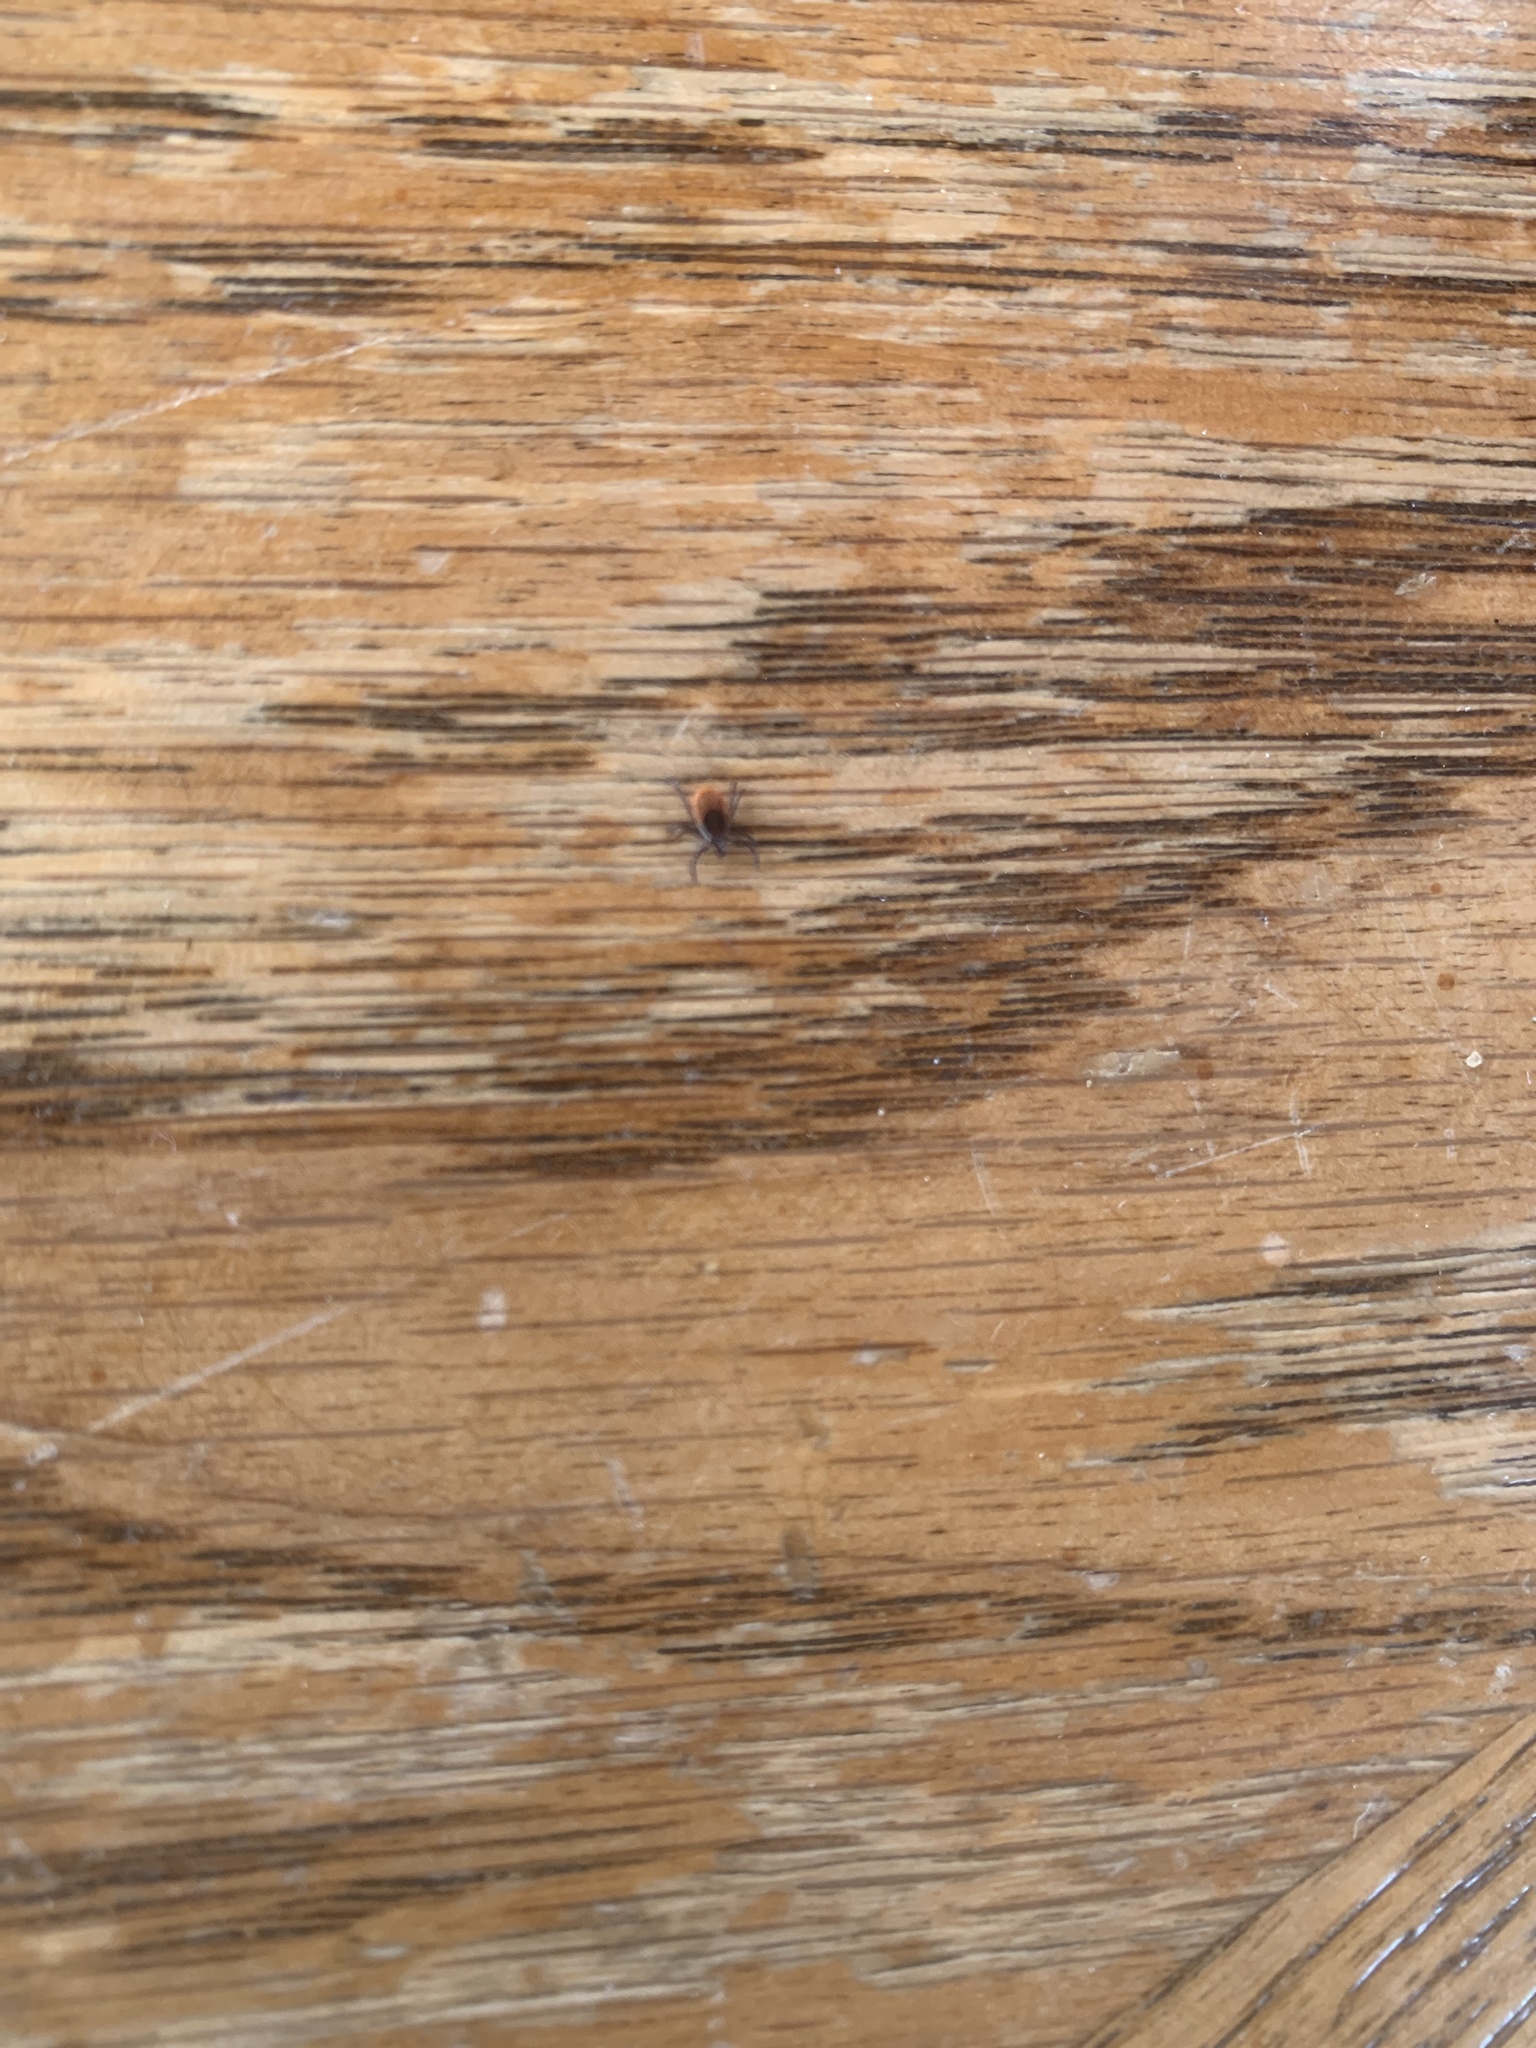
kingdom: Animalia
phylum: Arthropoda
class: Arachnida
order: Ixodida
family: Ixodidae
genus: Ixodes
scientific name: Ixodes scapularis
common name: Black legged tick
